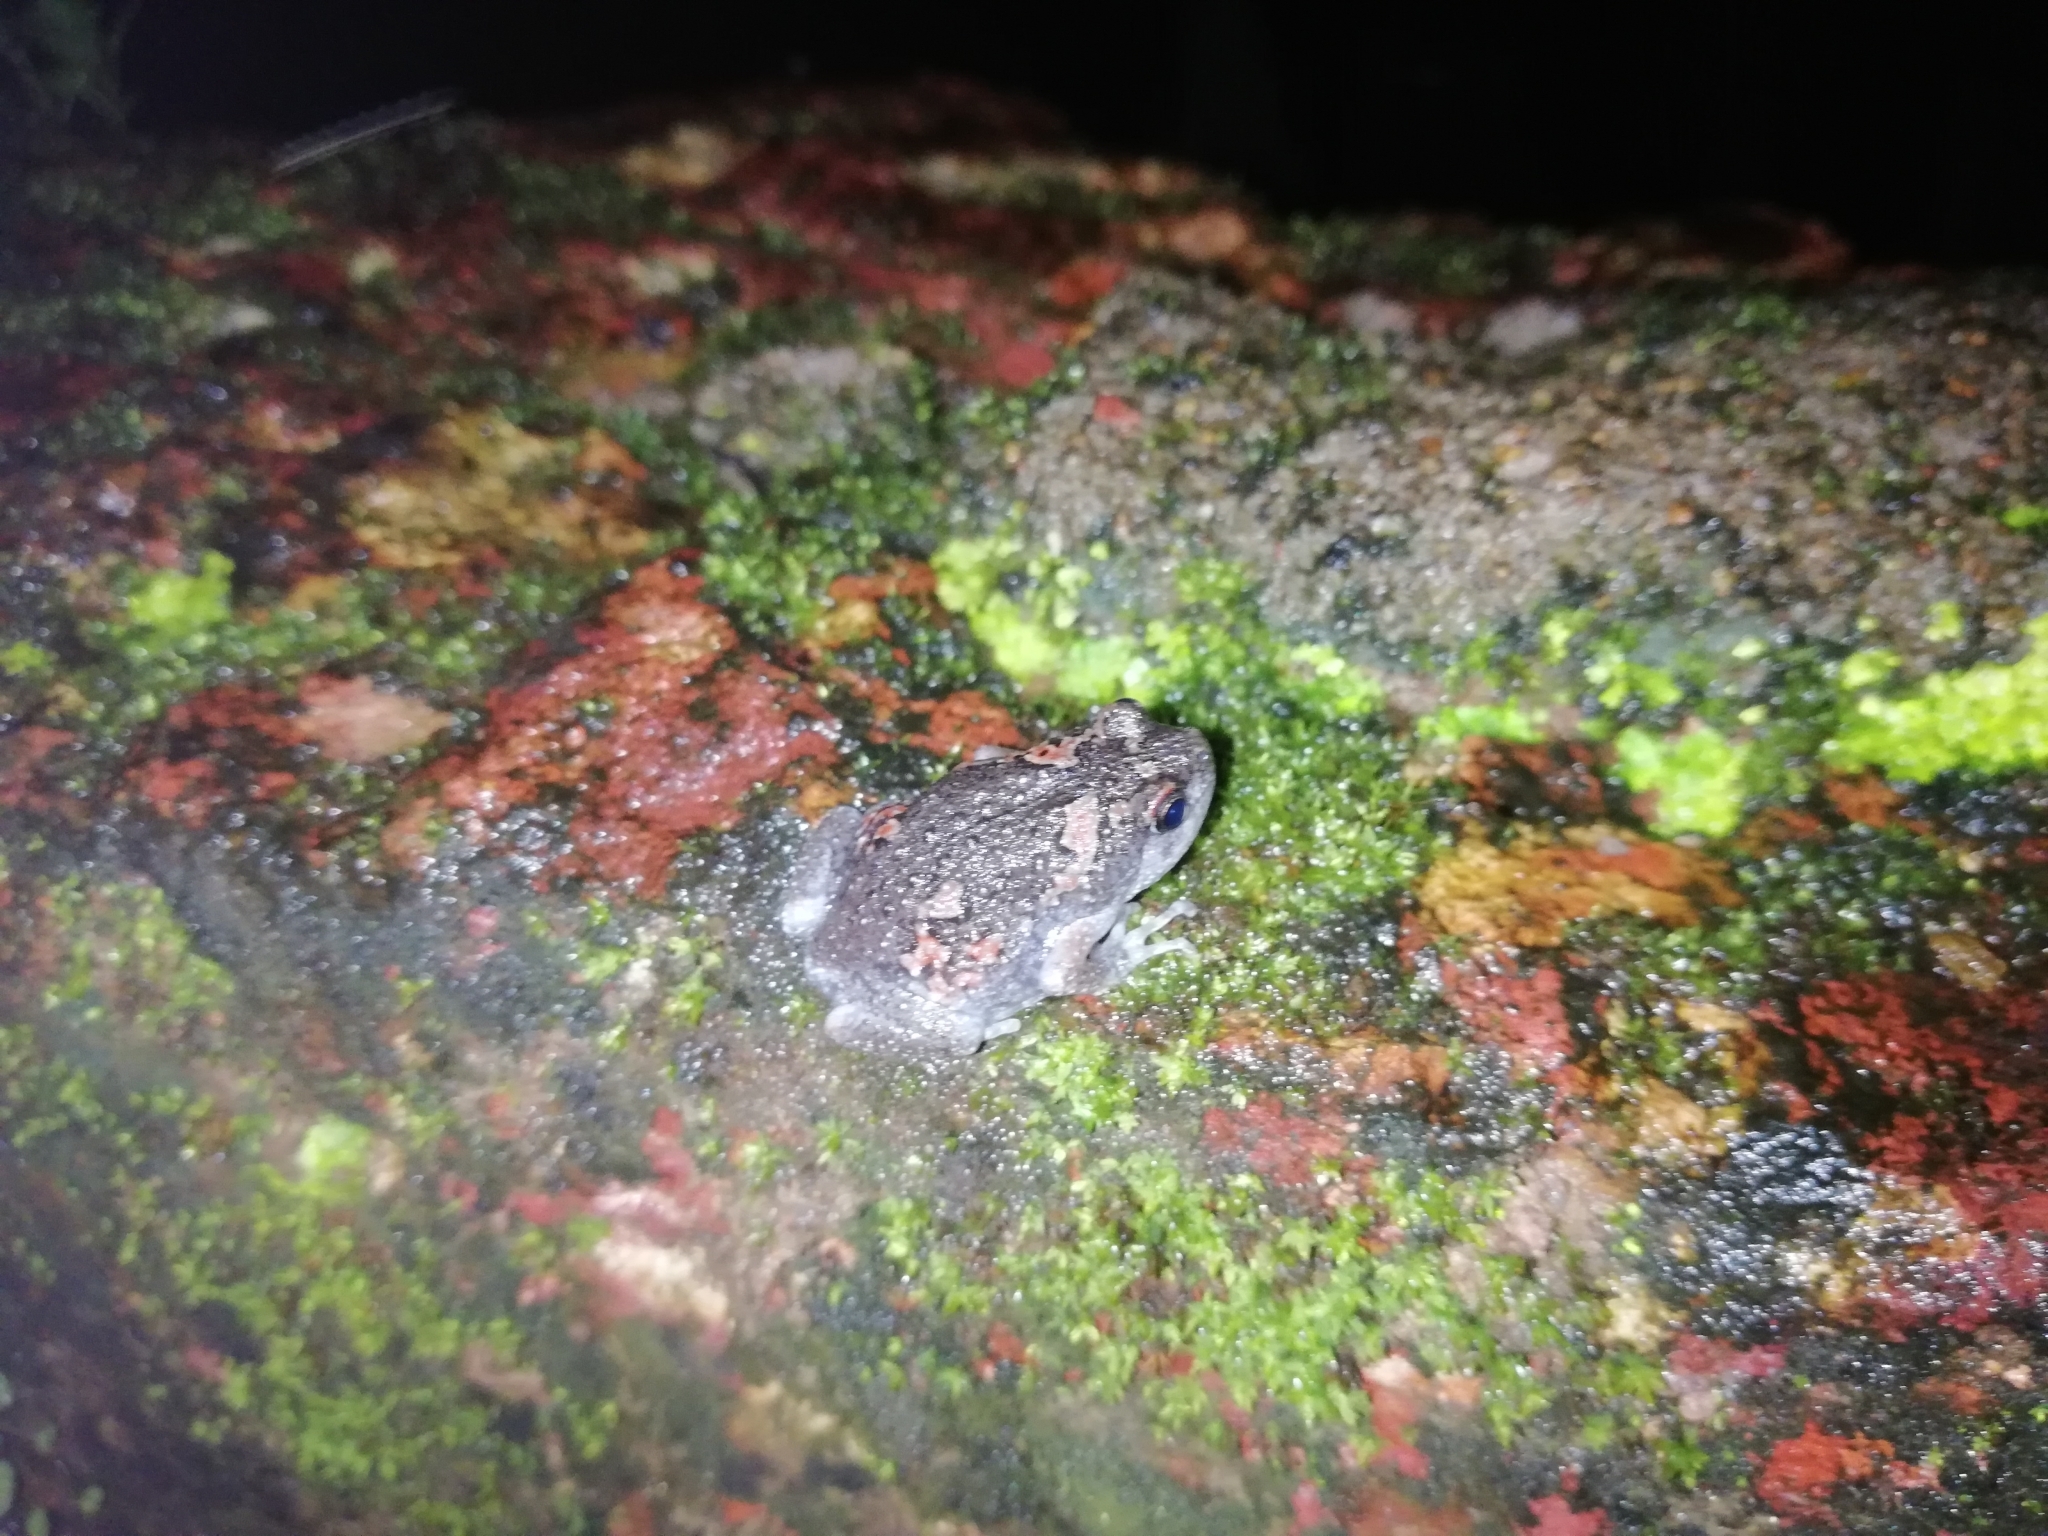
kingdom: Animalia
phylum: Chordata
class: Amphibia
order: Anura
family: Microhylidae
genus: Uperodon
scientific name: Uperodon taprobanicus
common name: Ceylon kaloula
